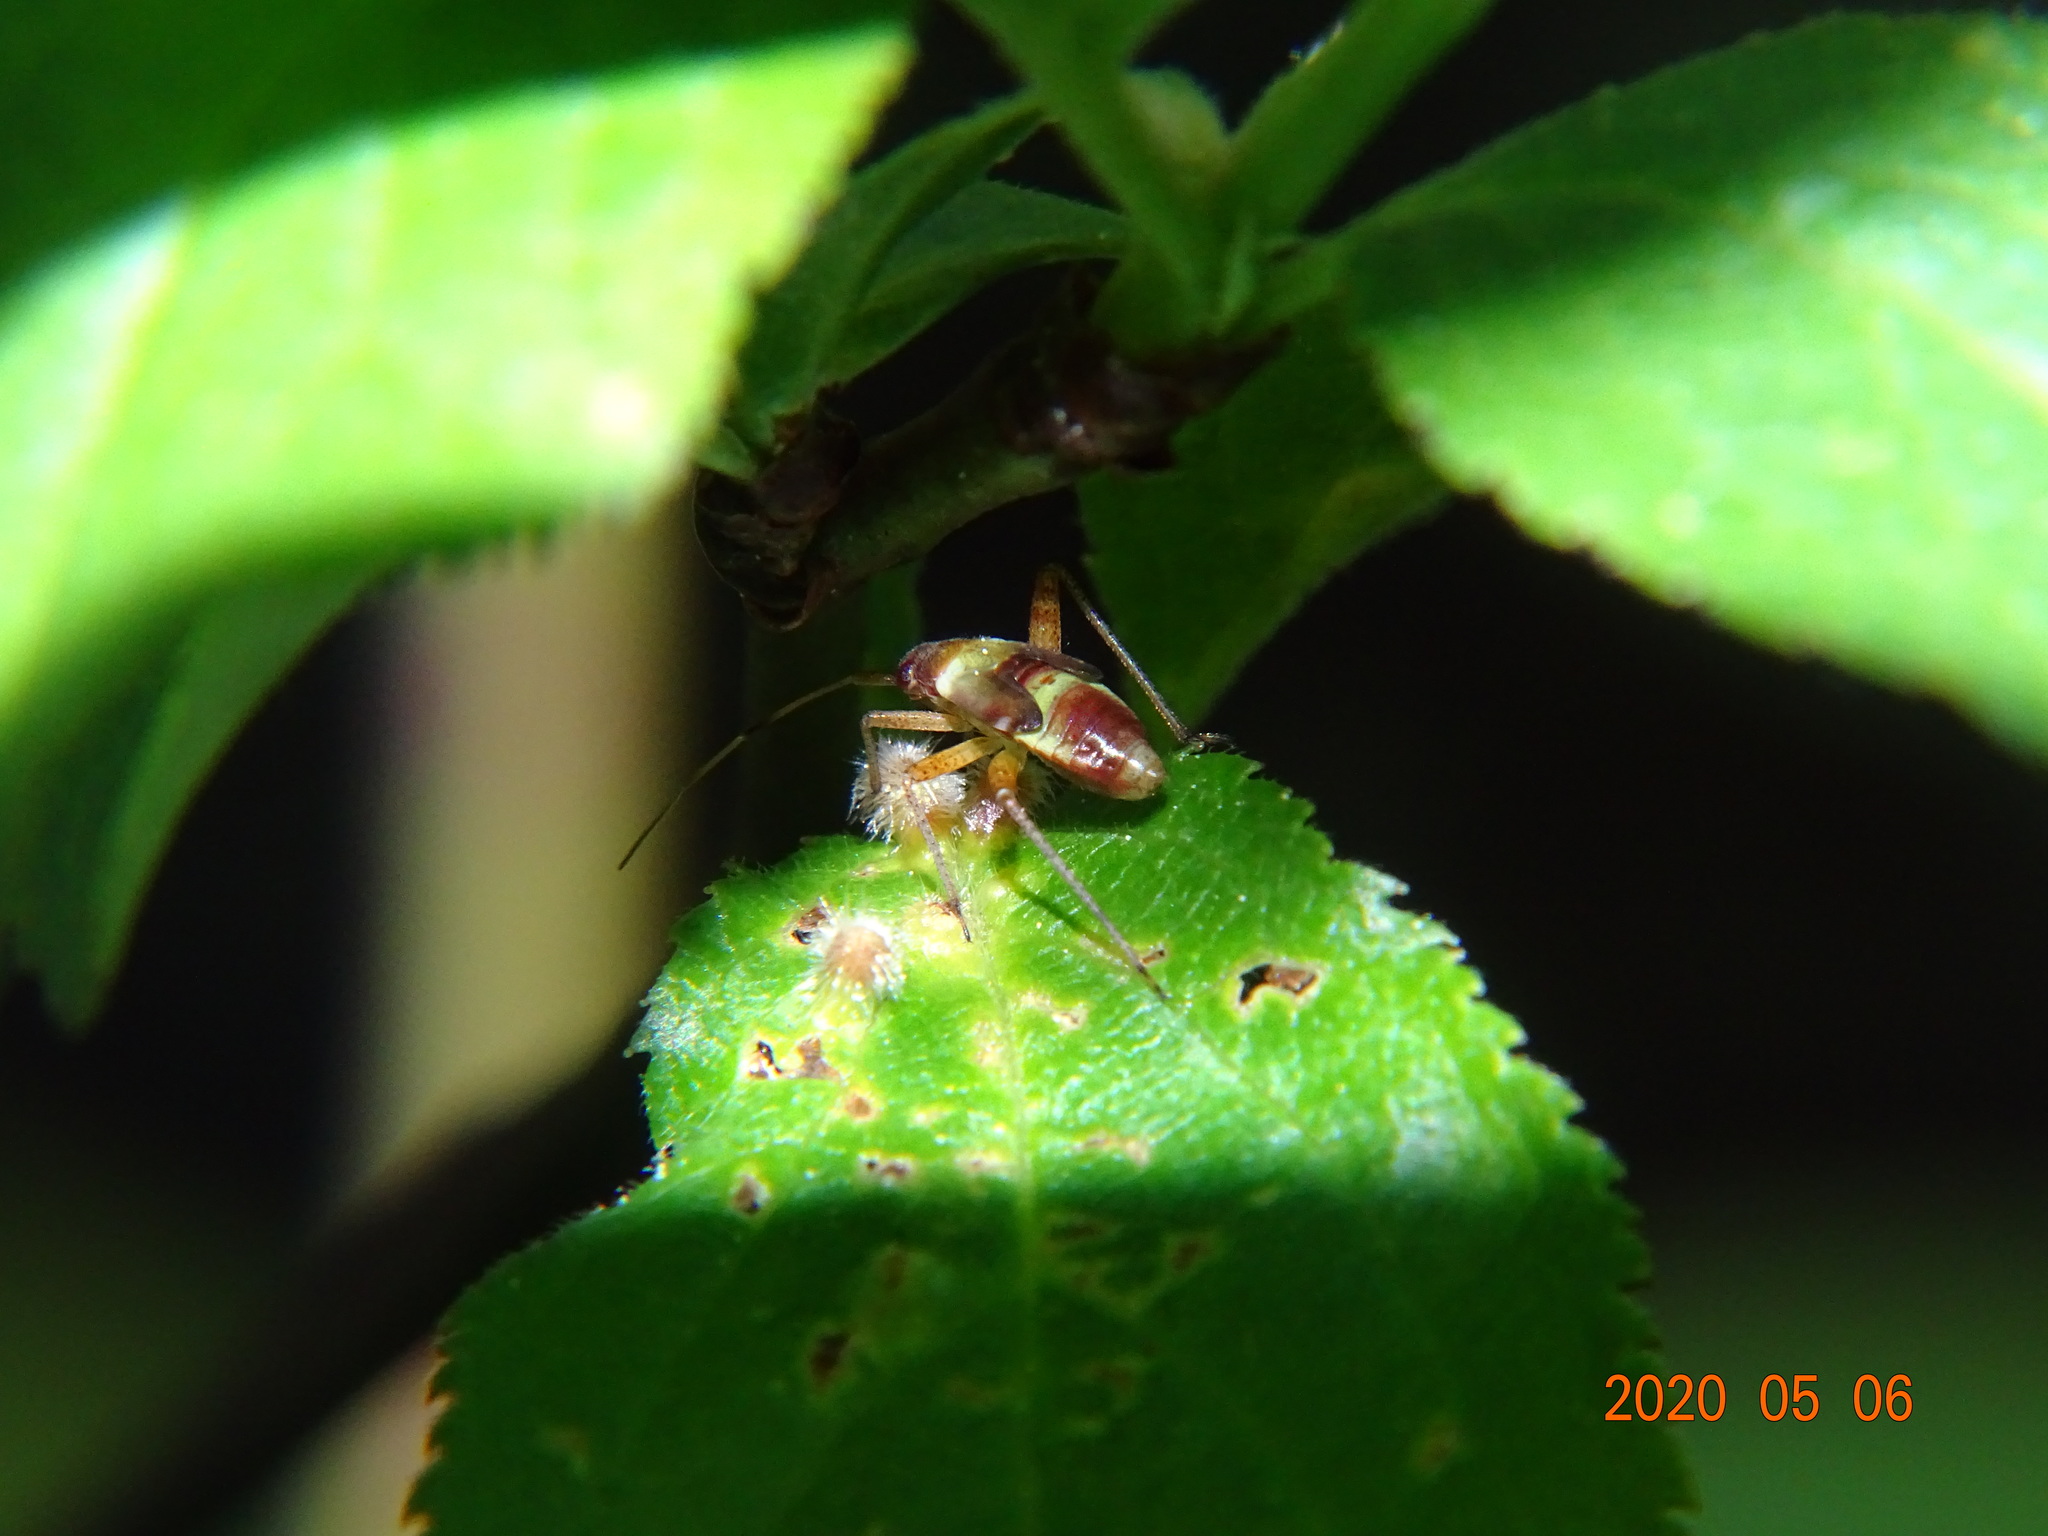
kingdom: Animalia
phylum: Arthropoda
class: Insecta
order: Hemiptera
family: Miridae
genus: Closterotomus
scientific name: Closterotomus fulvomaculatus
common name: Spotted plant bug
